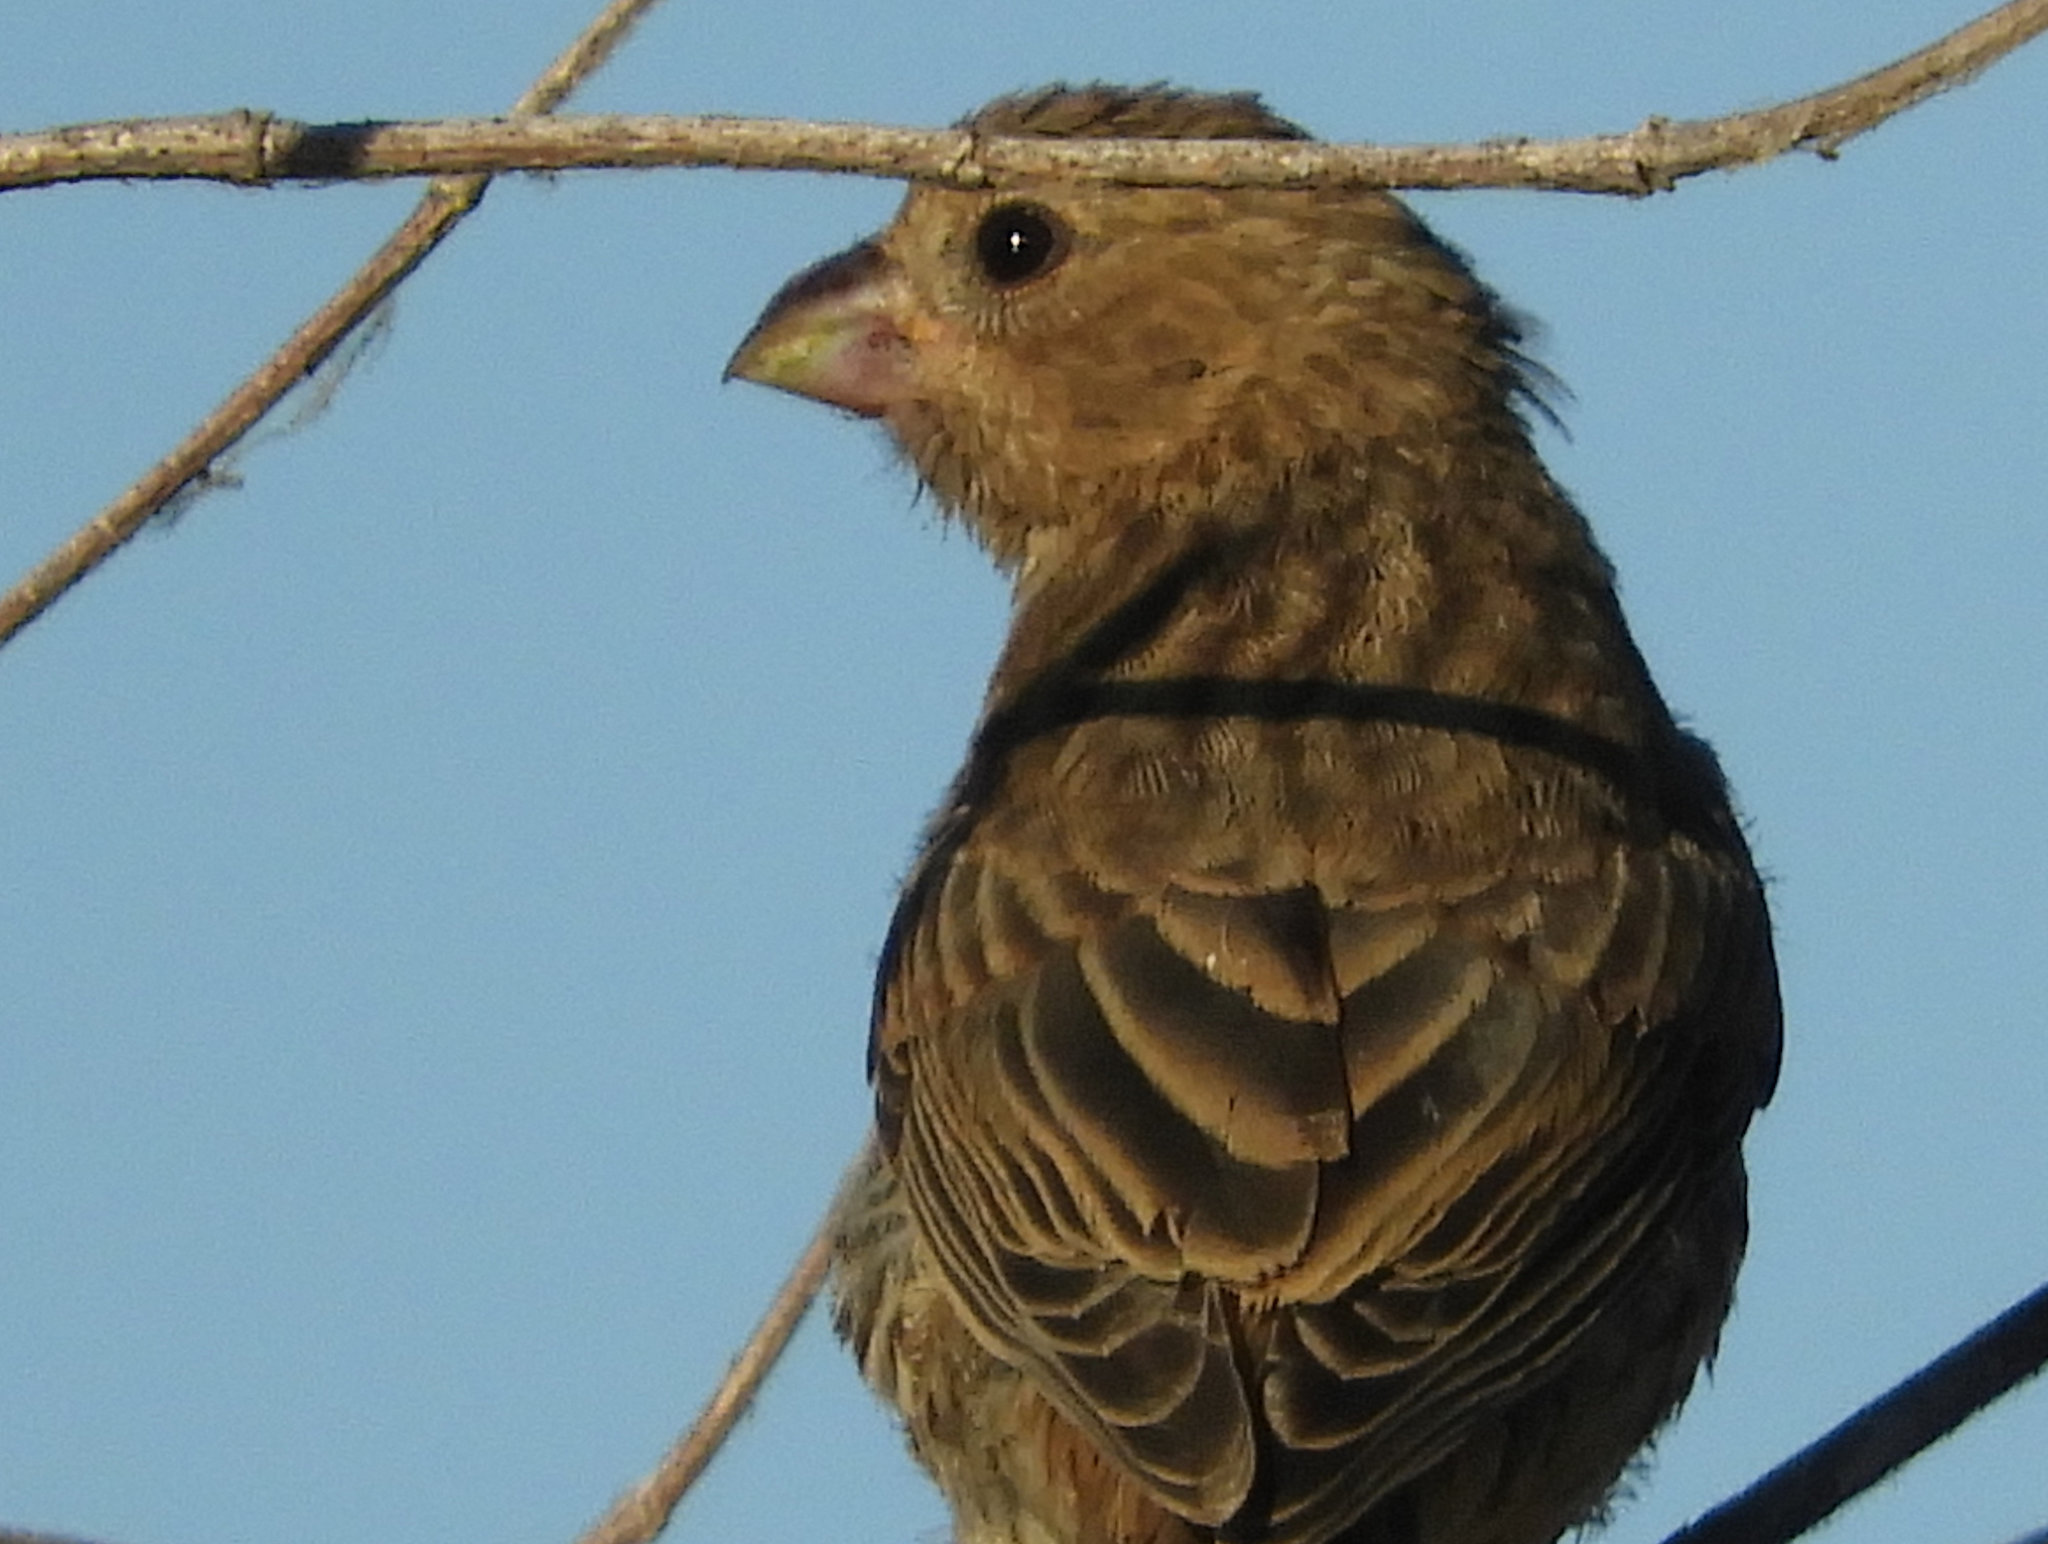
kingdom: Animalia
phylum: Chordata
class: Aves
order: Passeriformes
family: Fringillidae
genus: Haemorhous
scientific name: Haemorhous mexicanus
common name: House finch
